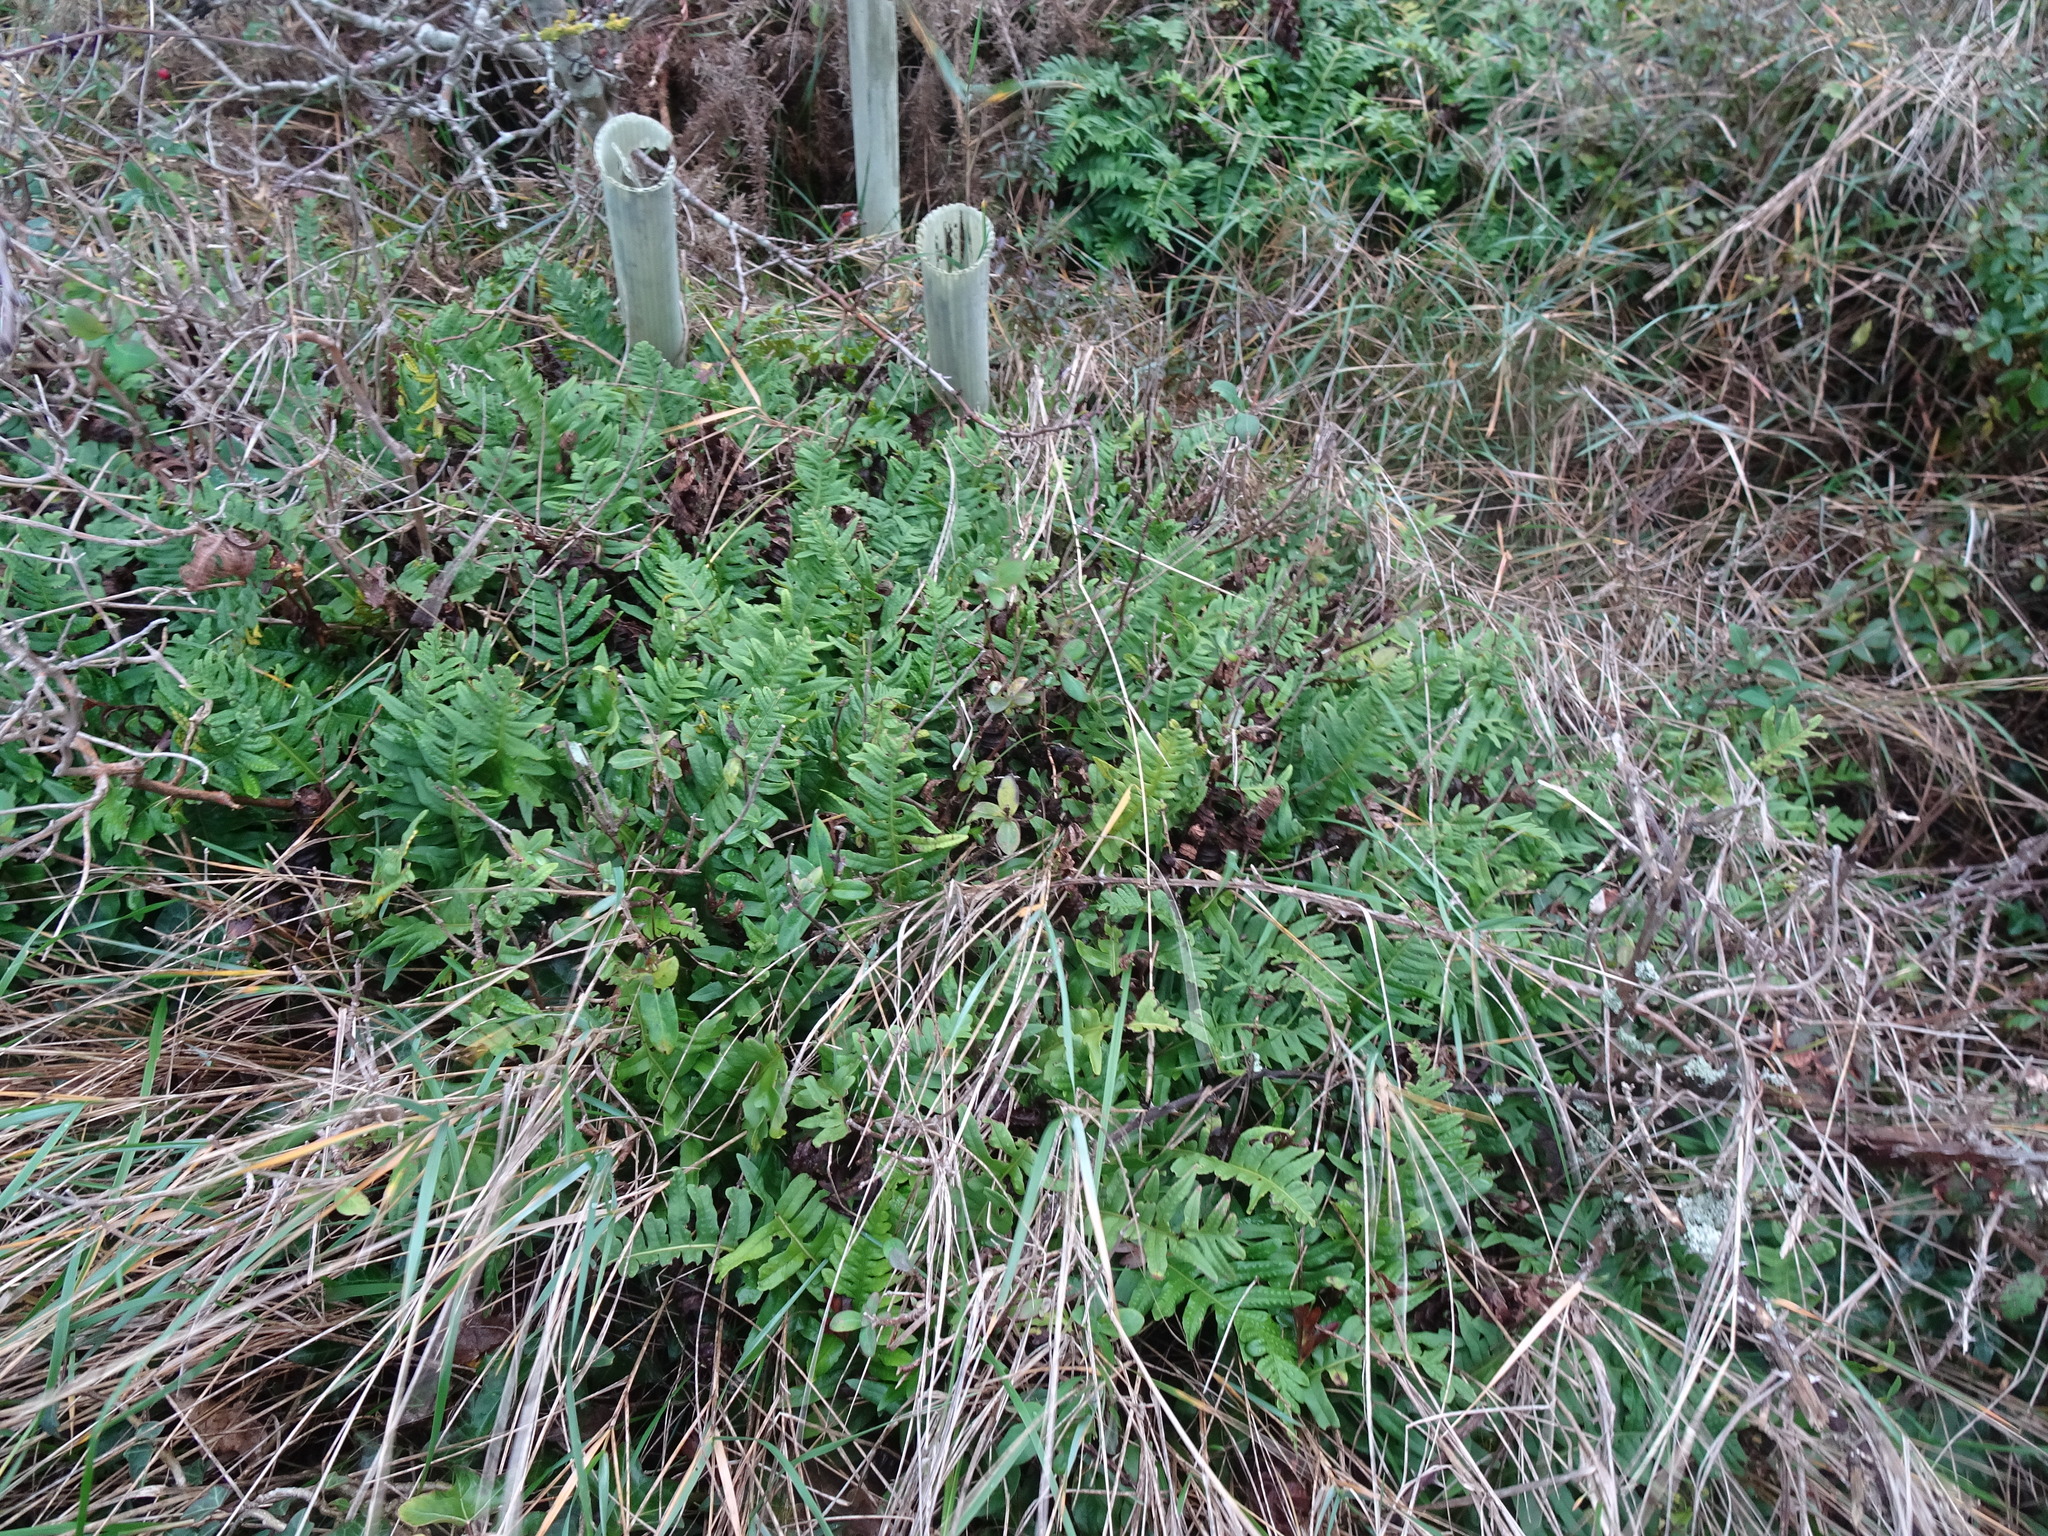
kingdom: Plantae
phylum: Tracheophyta
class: Polypodiopsida
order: Polypodiales
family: Polypodiaceae
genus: Polypodium
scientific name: Polypodium vulgare
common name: Common polypody
